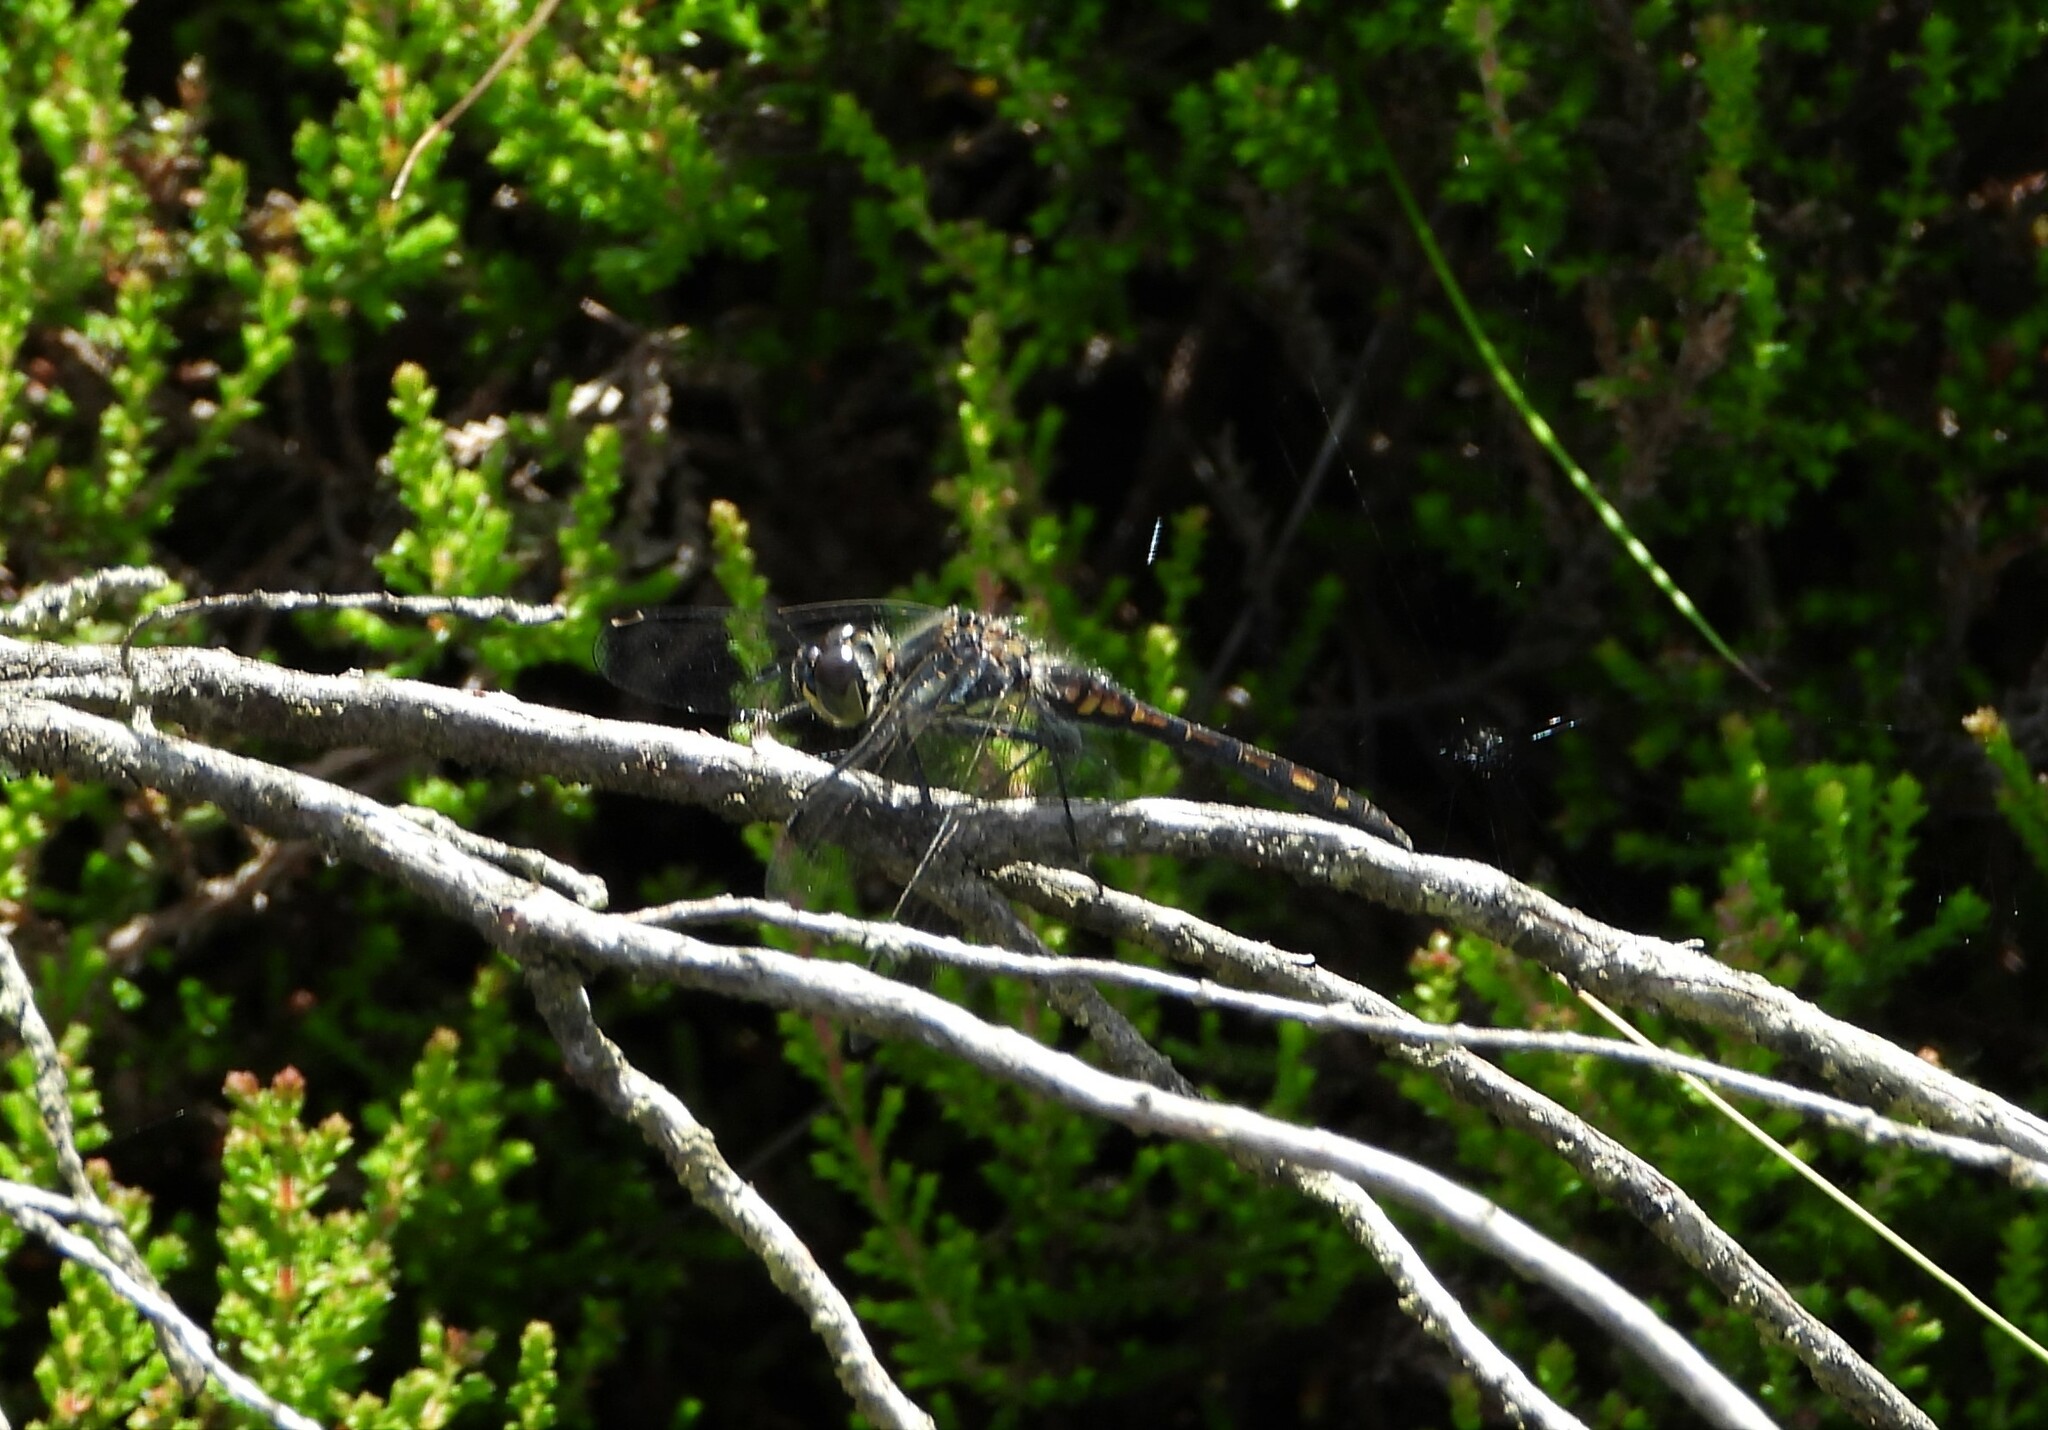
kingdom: Animalia
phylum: Arthropoda
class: Insecta
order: Odonata
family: Libellulidae
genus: Sympetrum
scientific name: Sympetrum danae
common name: Black darter
